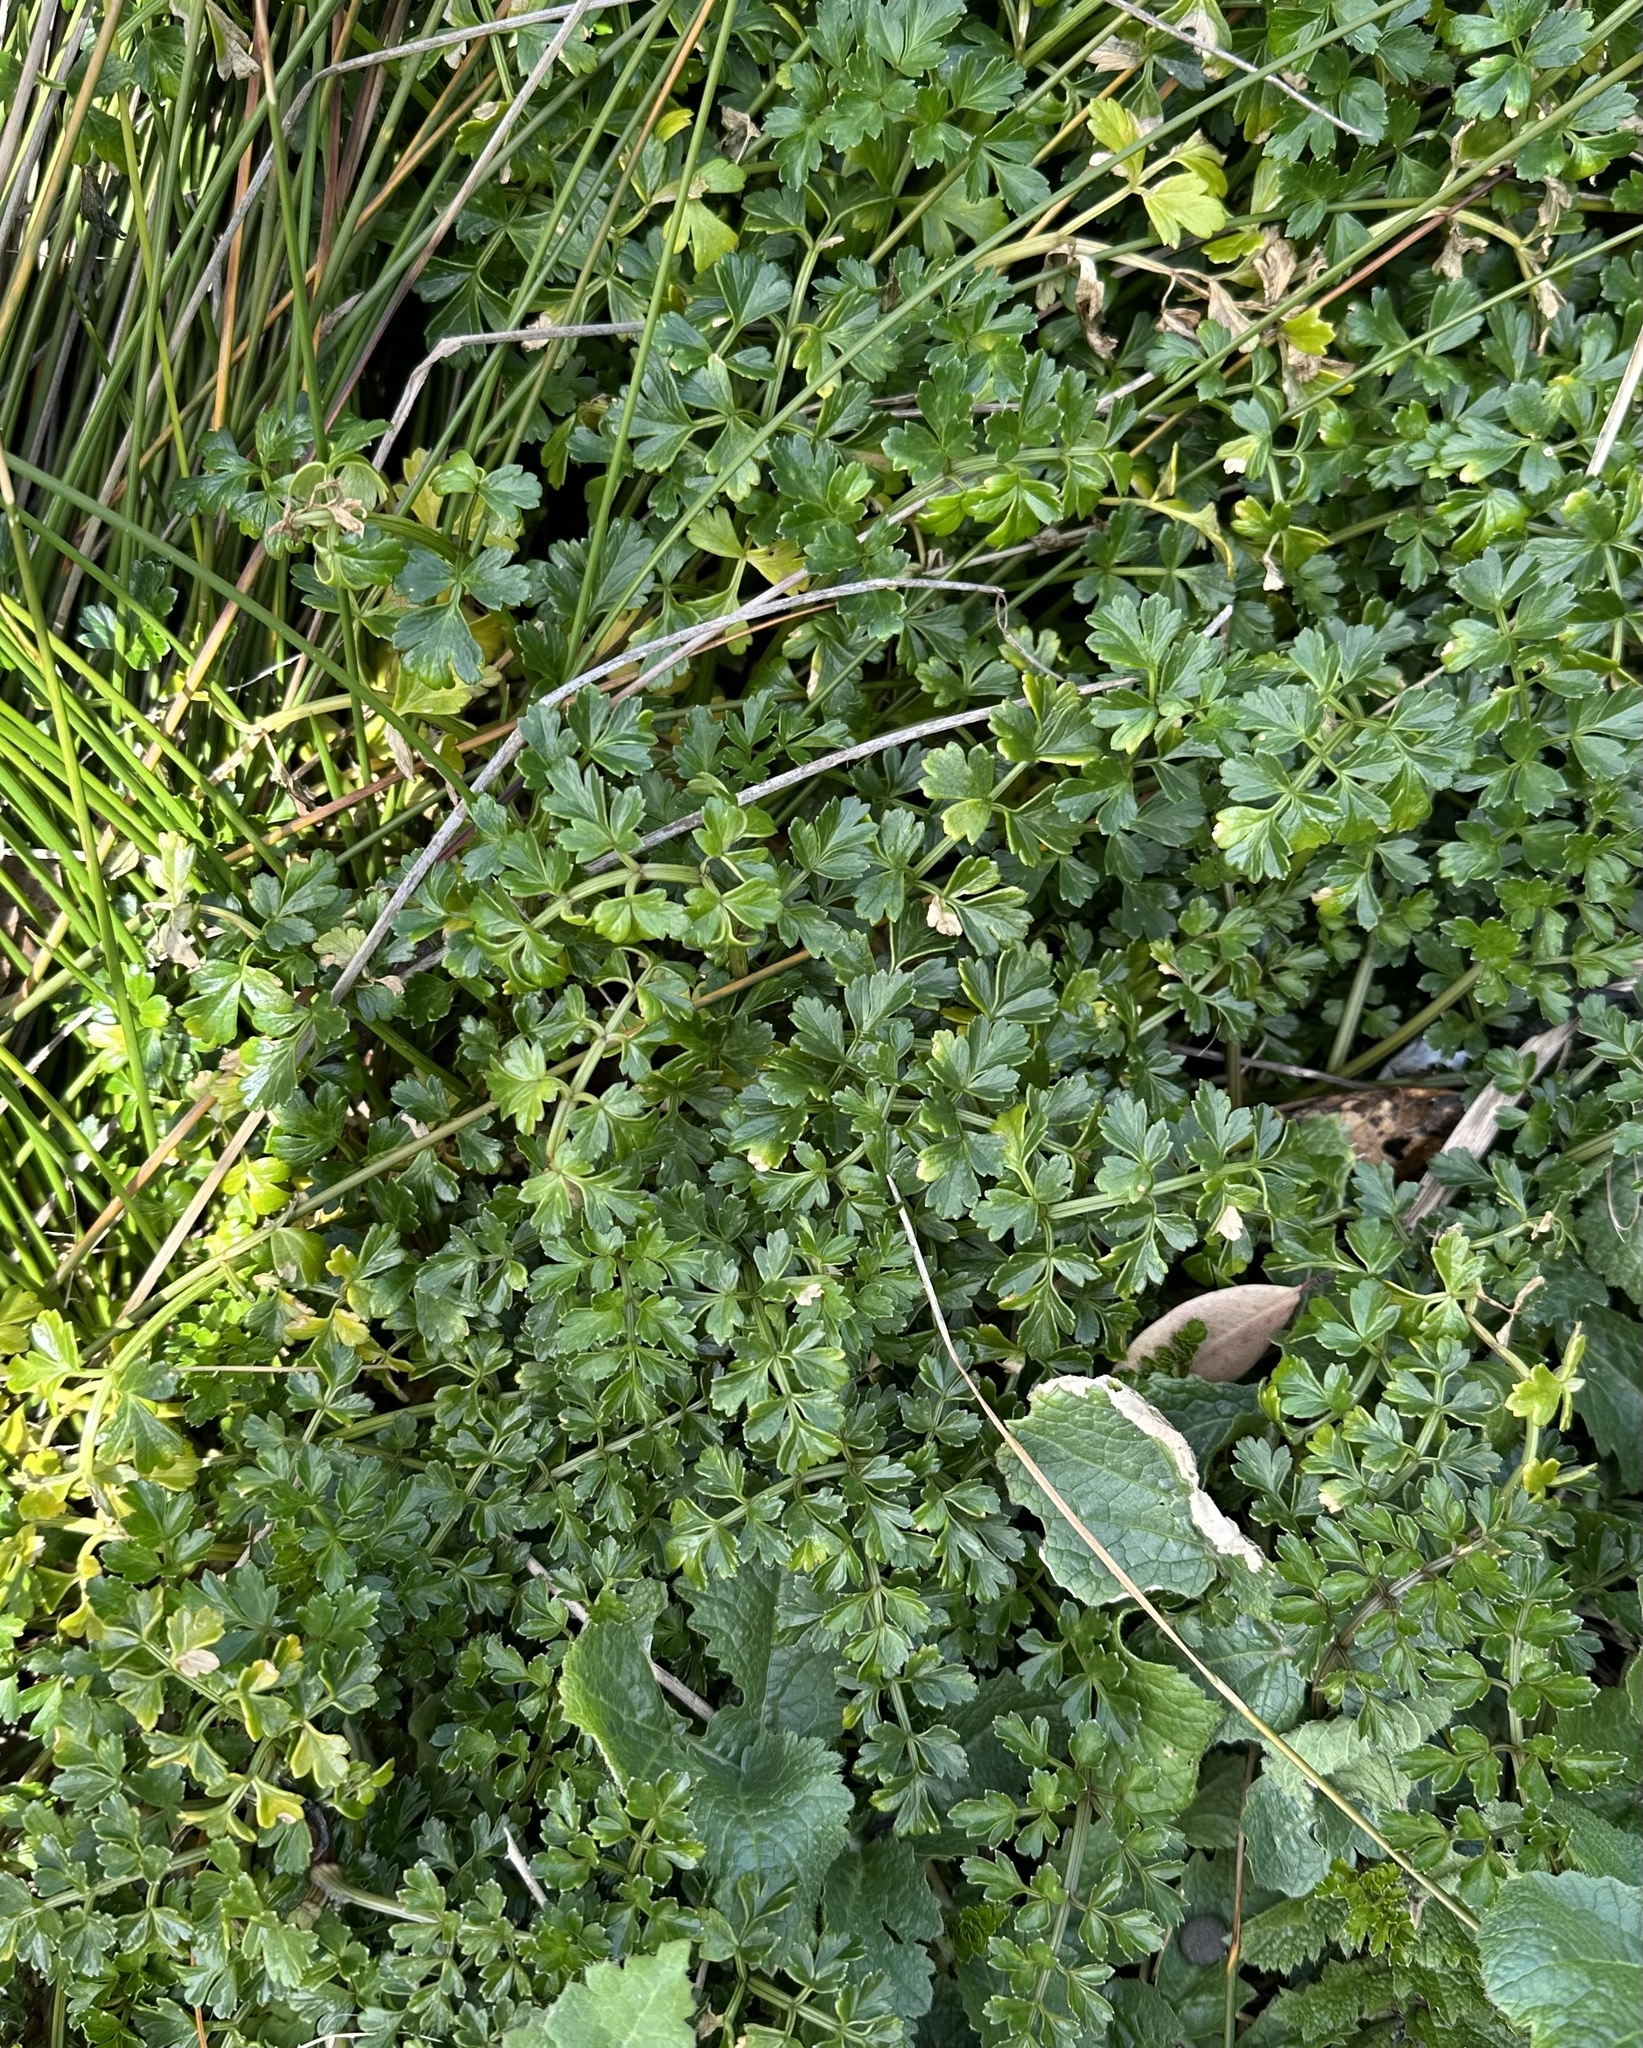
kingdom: Plantae
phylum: Tracheophyta
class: Magnoliopsida
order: Apiales
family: Apiaceae
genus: Apium
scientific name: Apium prostratum
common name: Prostrate marshwort
